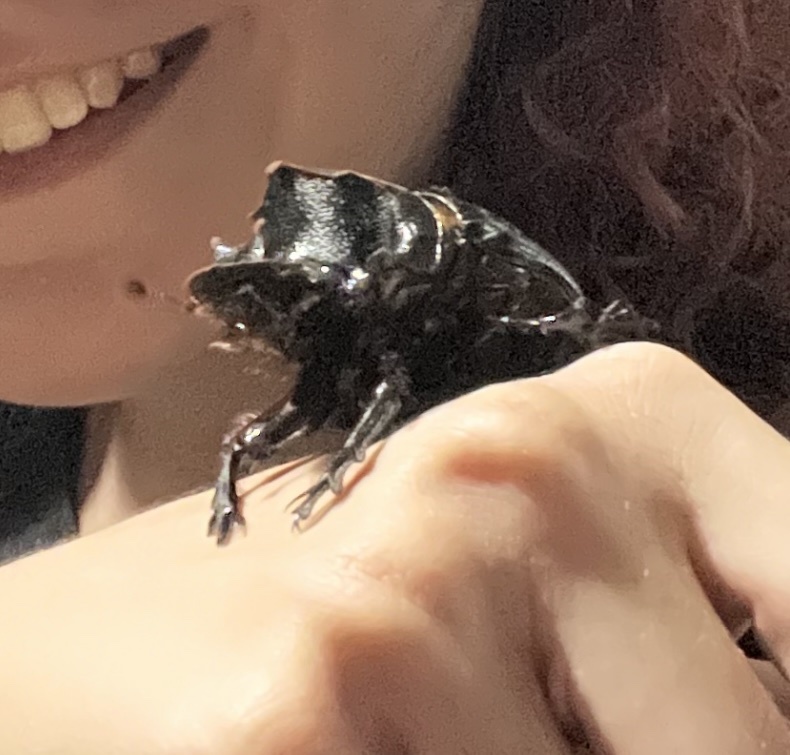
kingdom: Animalia
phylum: Arthropoda
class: Insecta
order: Coleoptera
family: Scarabaeidae
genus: Heliocopris
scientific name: Heliocopris hamadryas
